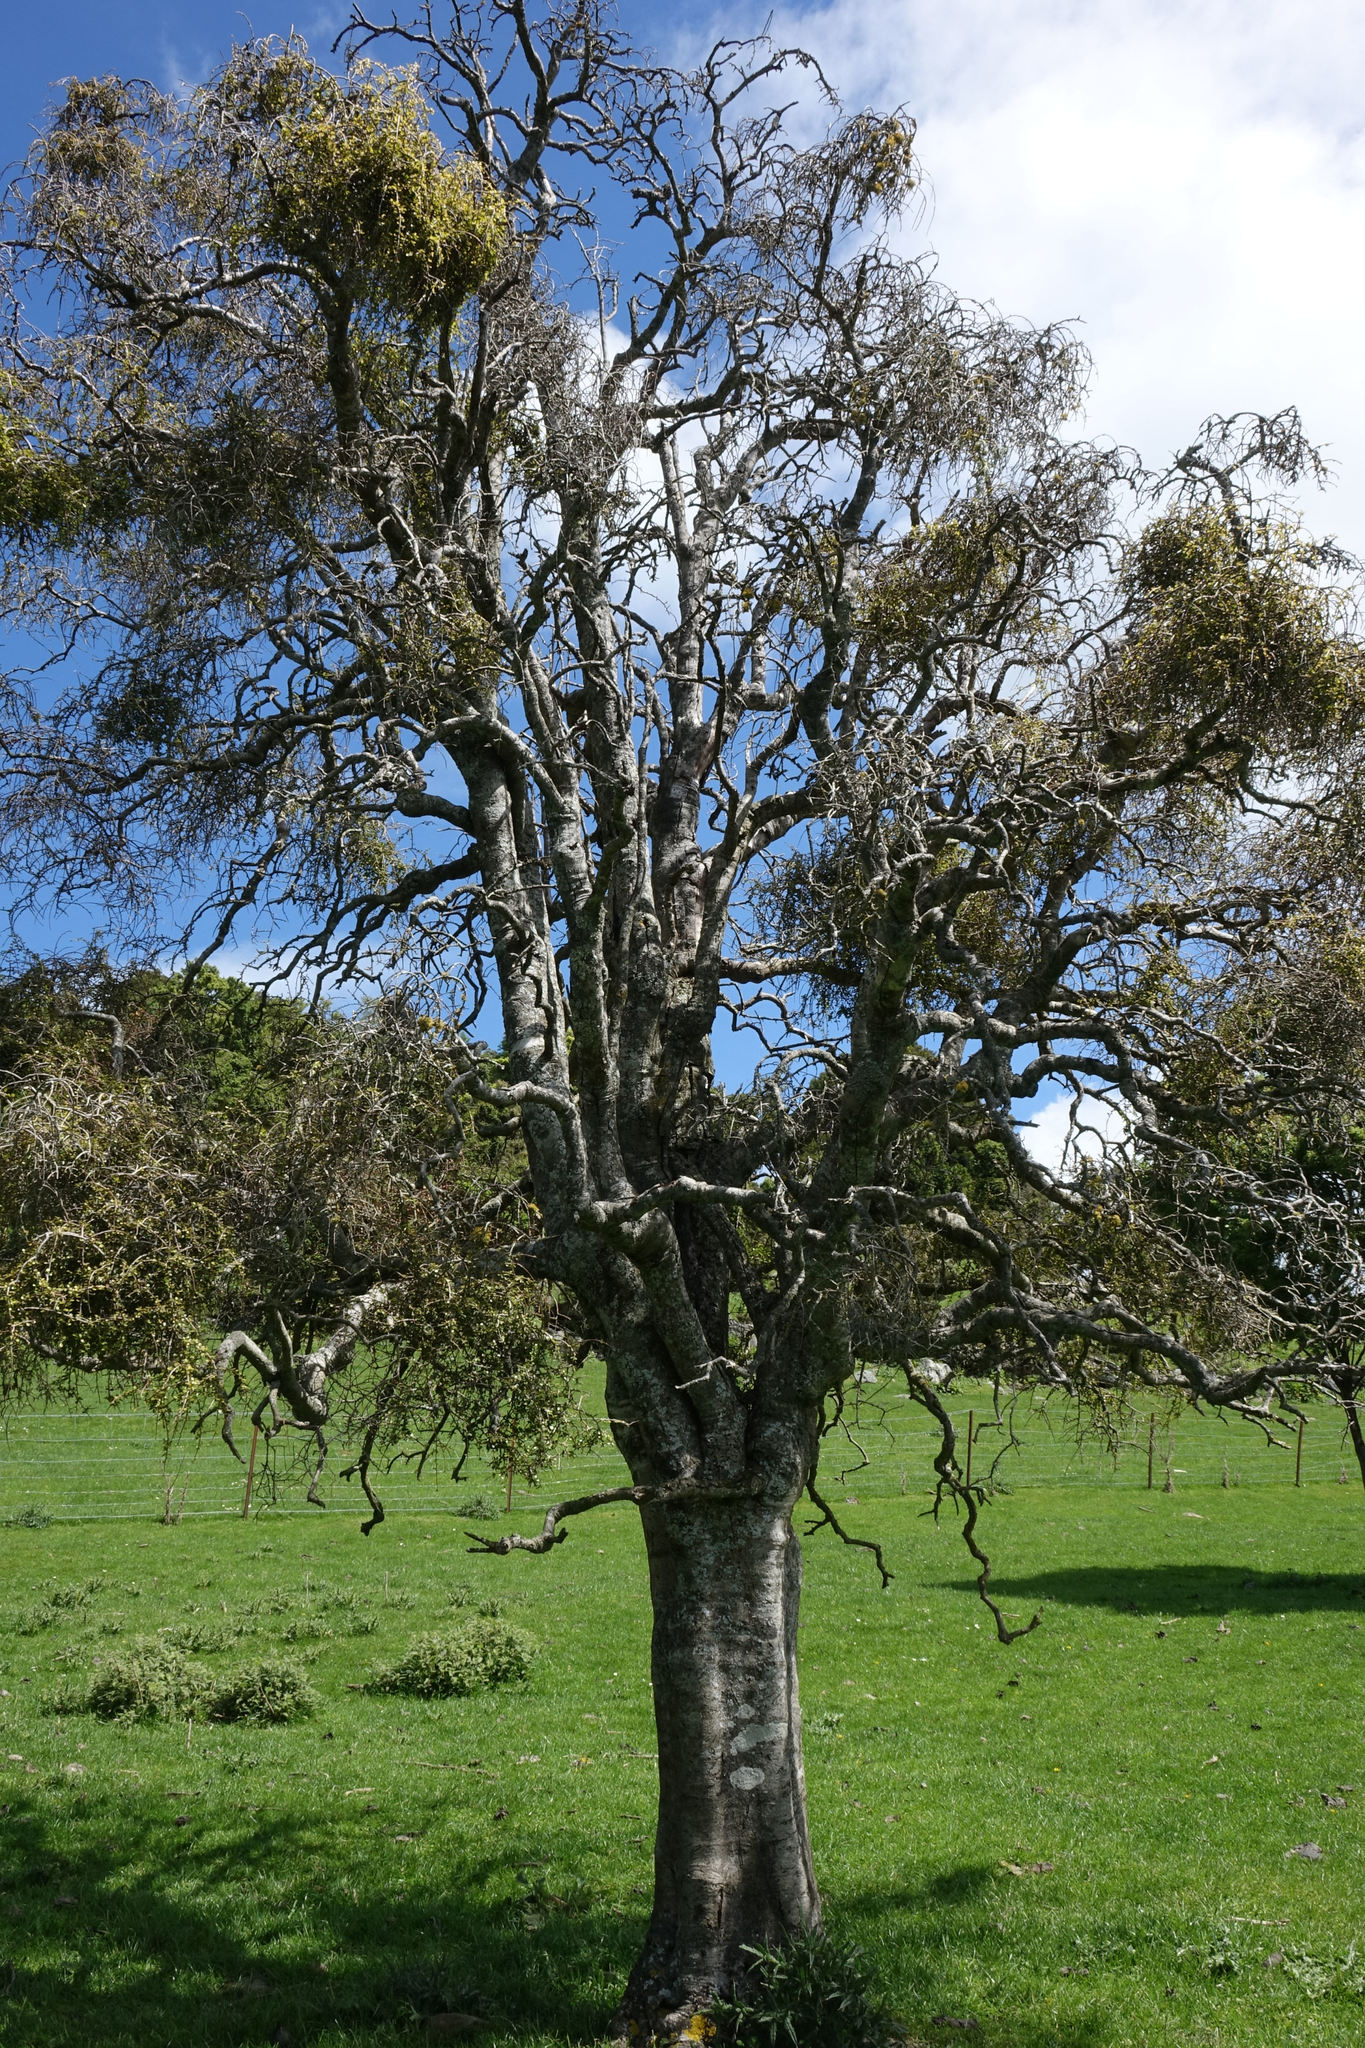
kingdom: Plantae
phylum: Tracheophyta
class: Magnoliopsida
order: Ericales
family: Primulaceae
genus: Myrsine
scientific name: Myrsine divaricata
